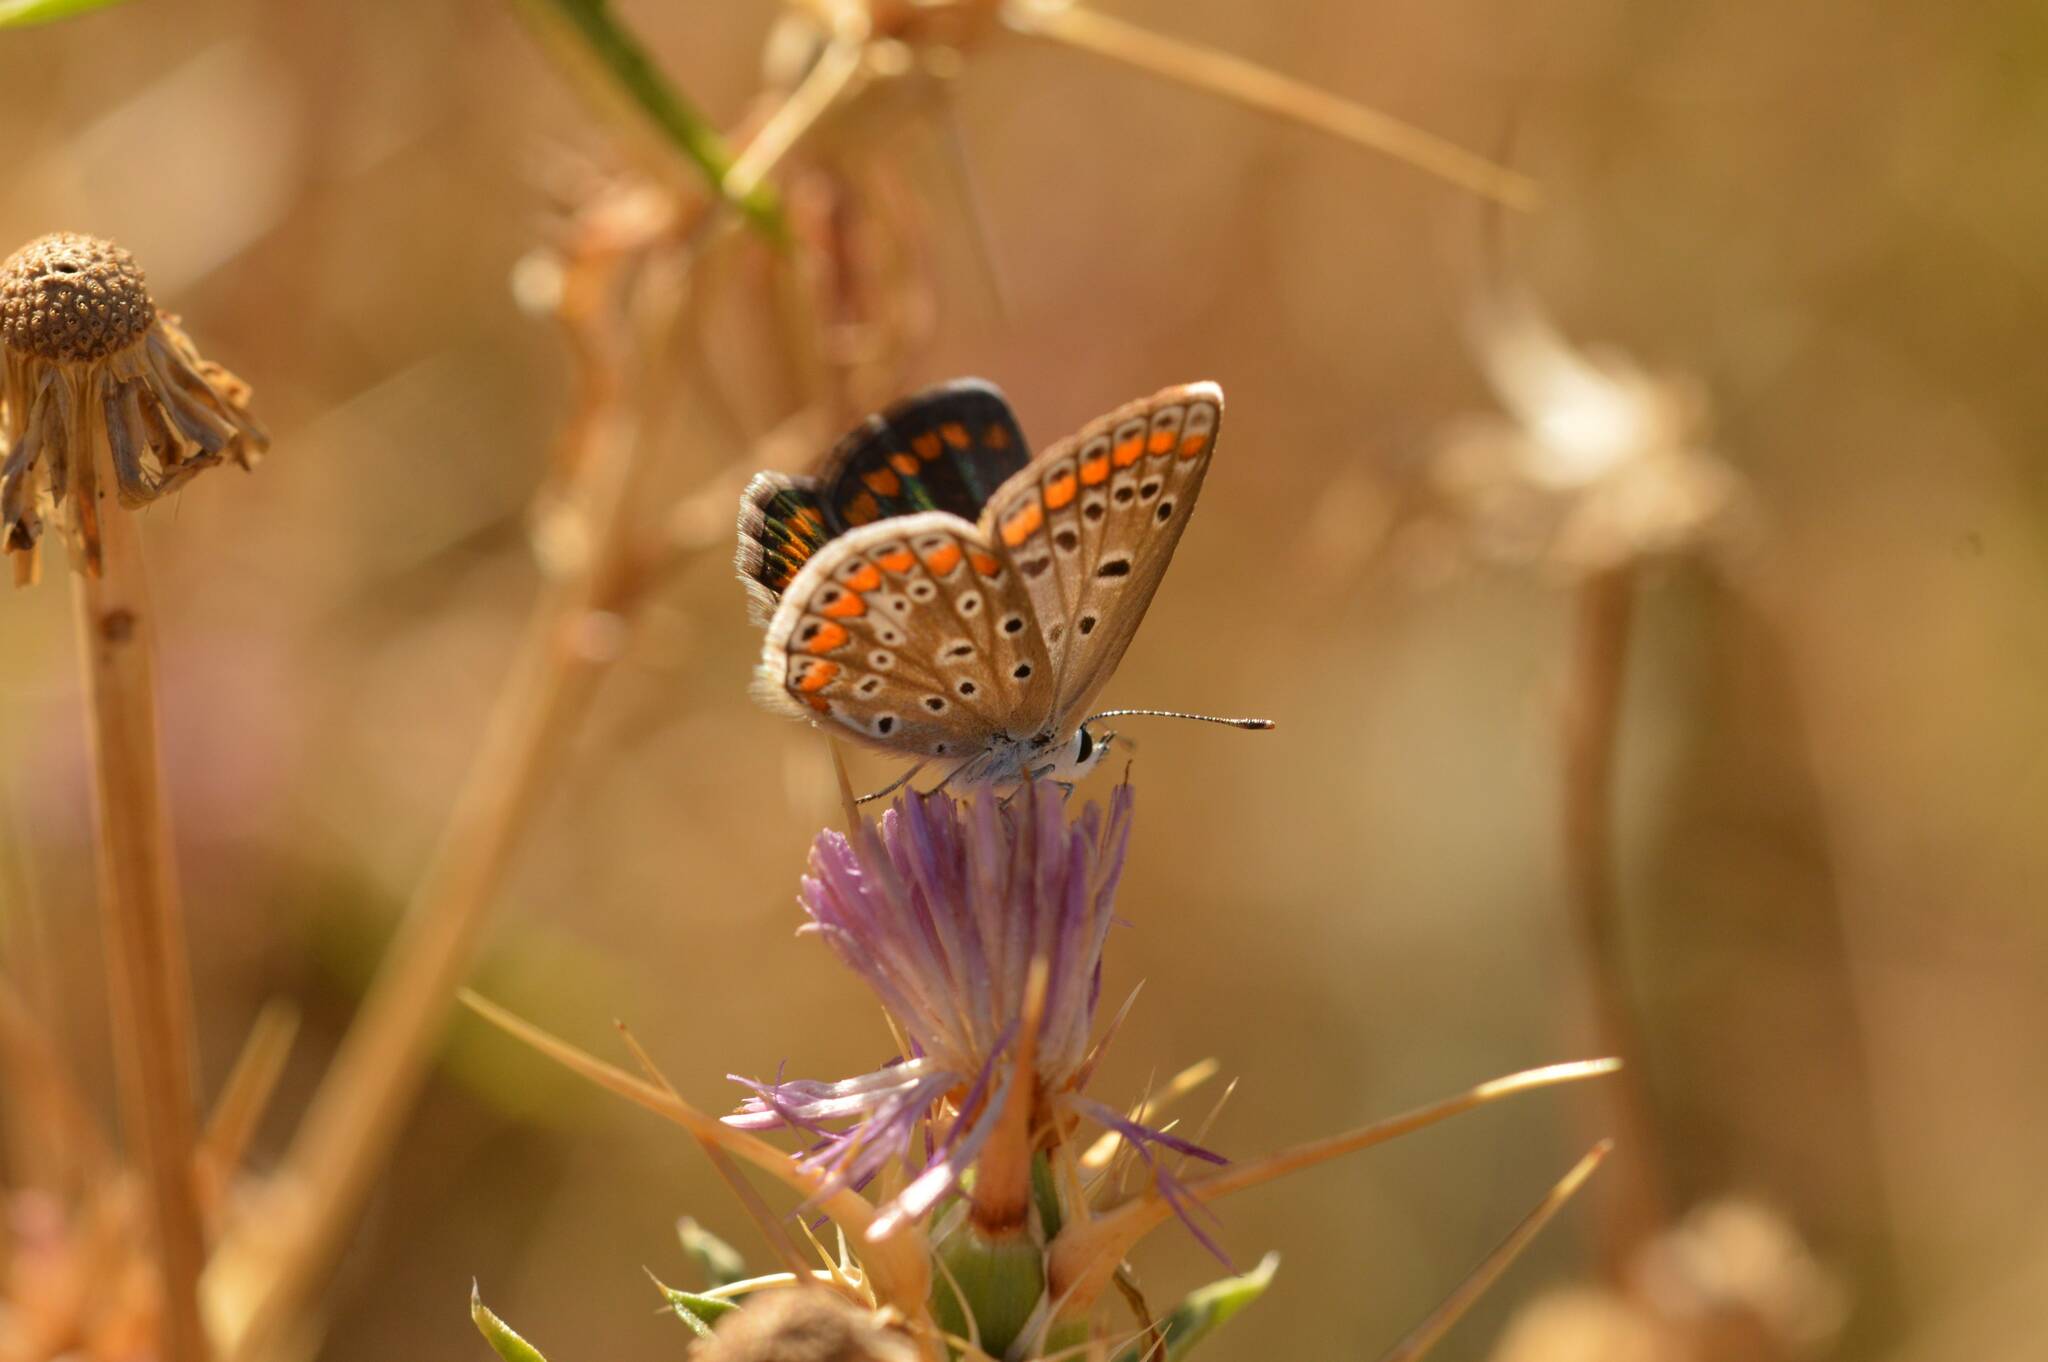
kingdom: Animalia
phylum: Arthropoda
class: Insecta
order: Lepidoptera
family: Lycaenidae
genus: Polyommatus
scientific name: Polyommatus celina
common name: Austaut's blue
